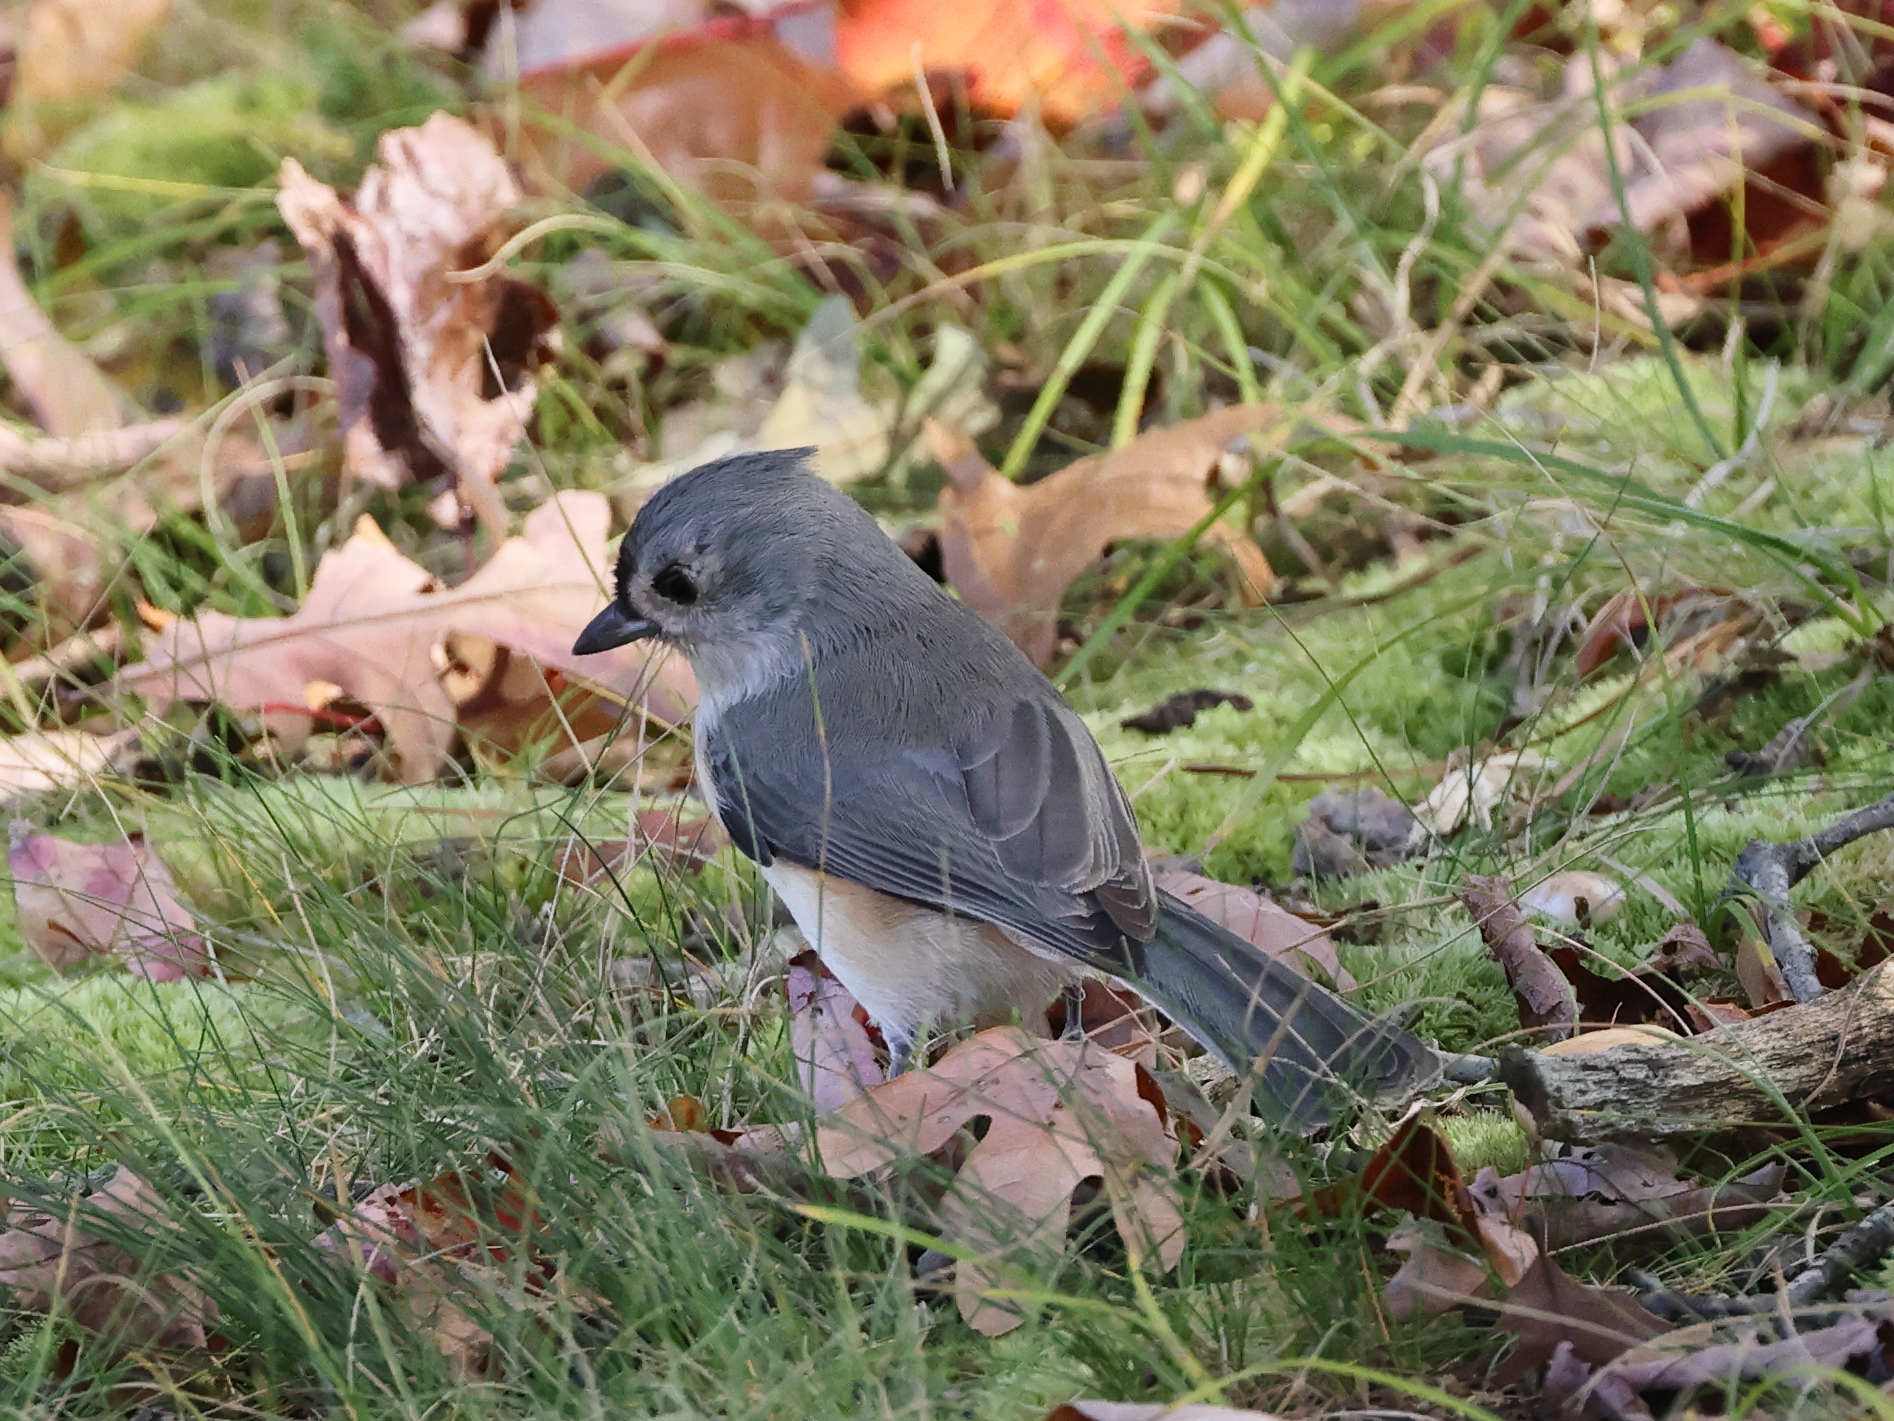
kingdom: Animalia
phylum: Chordata
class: Aves
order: Passeriformes
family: Paridae
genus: Baeolophus
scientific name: Baeolophus bicolor
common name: Tufted titmouse
